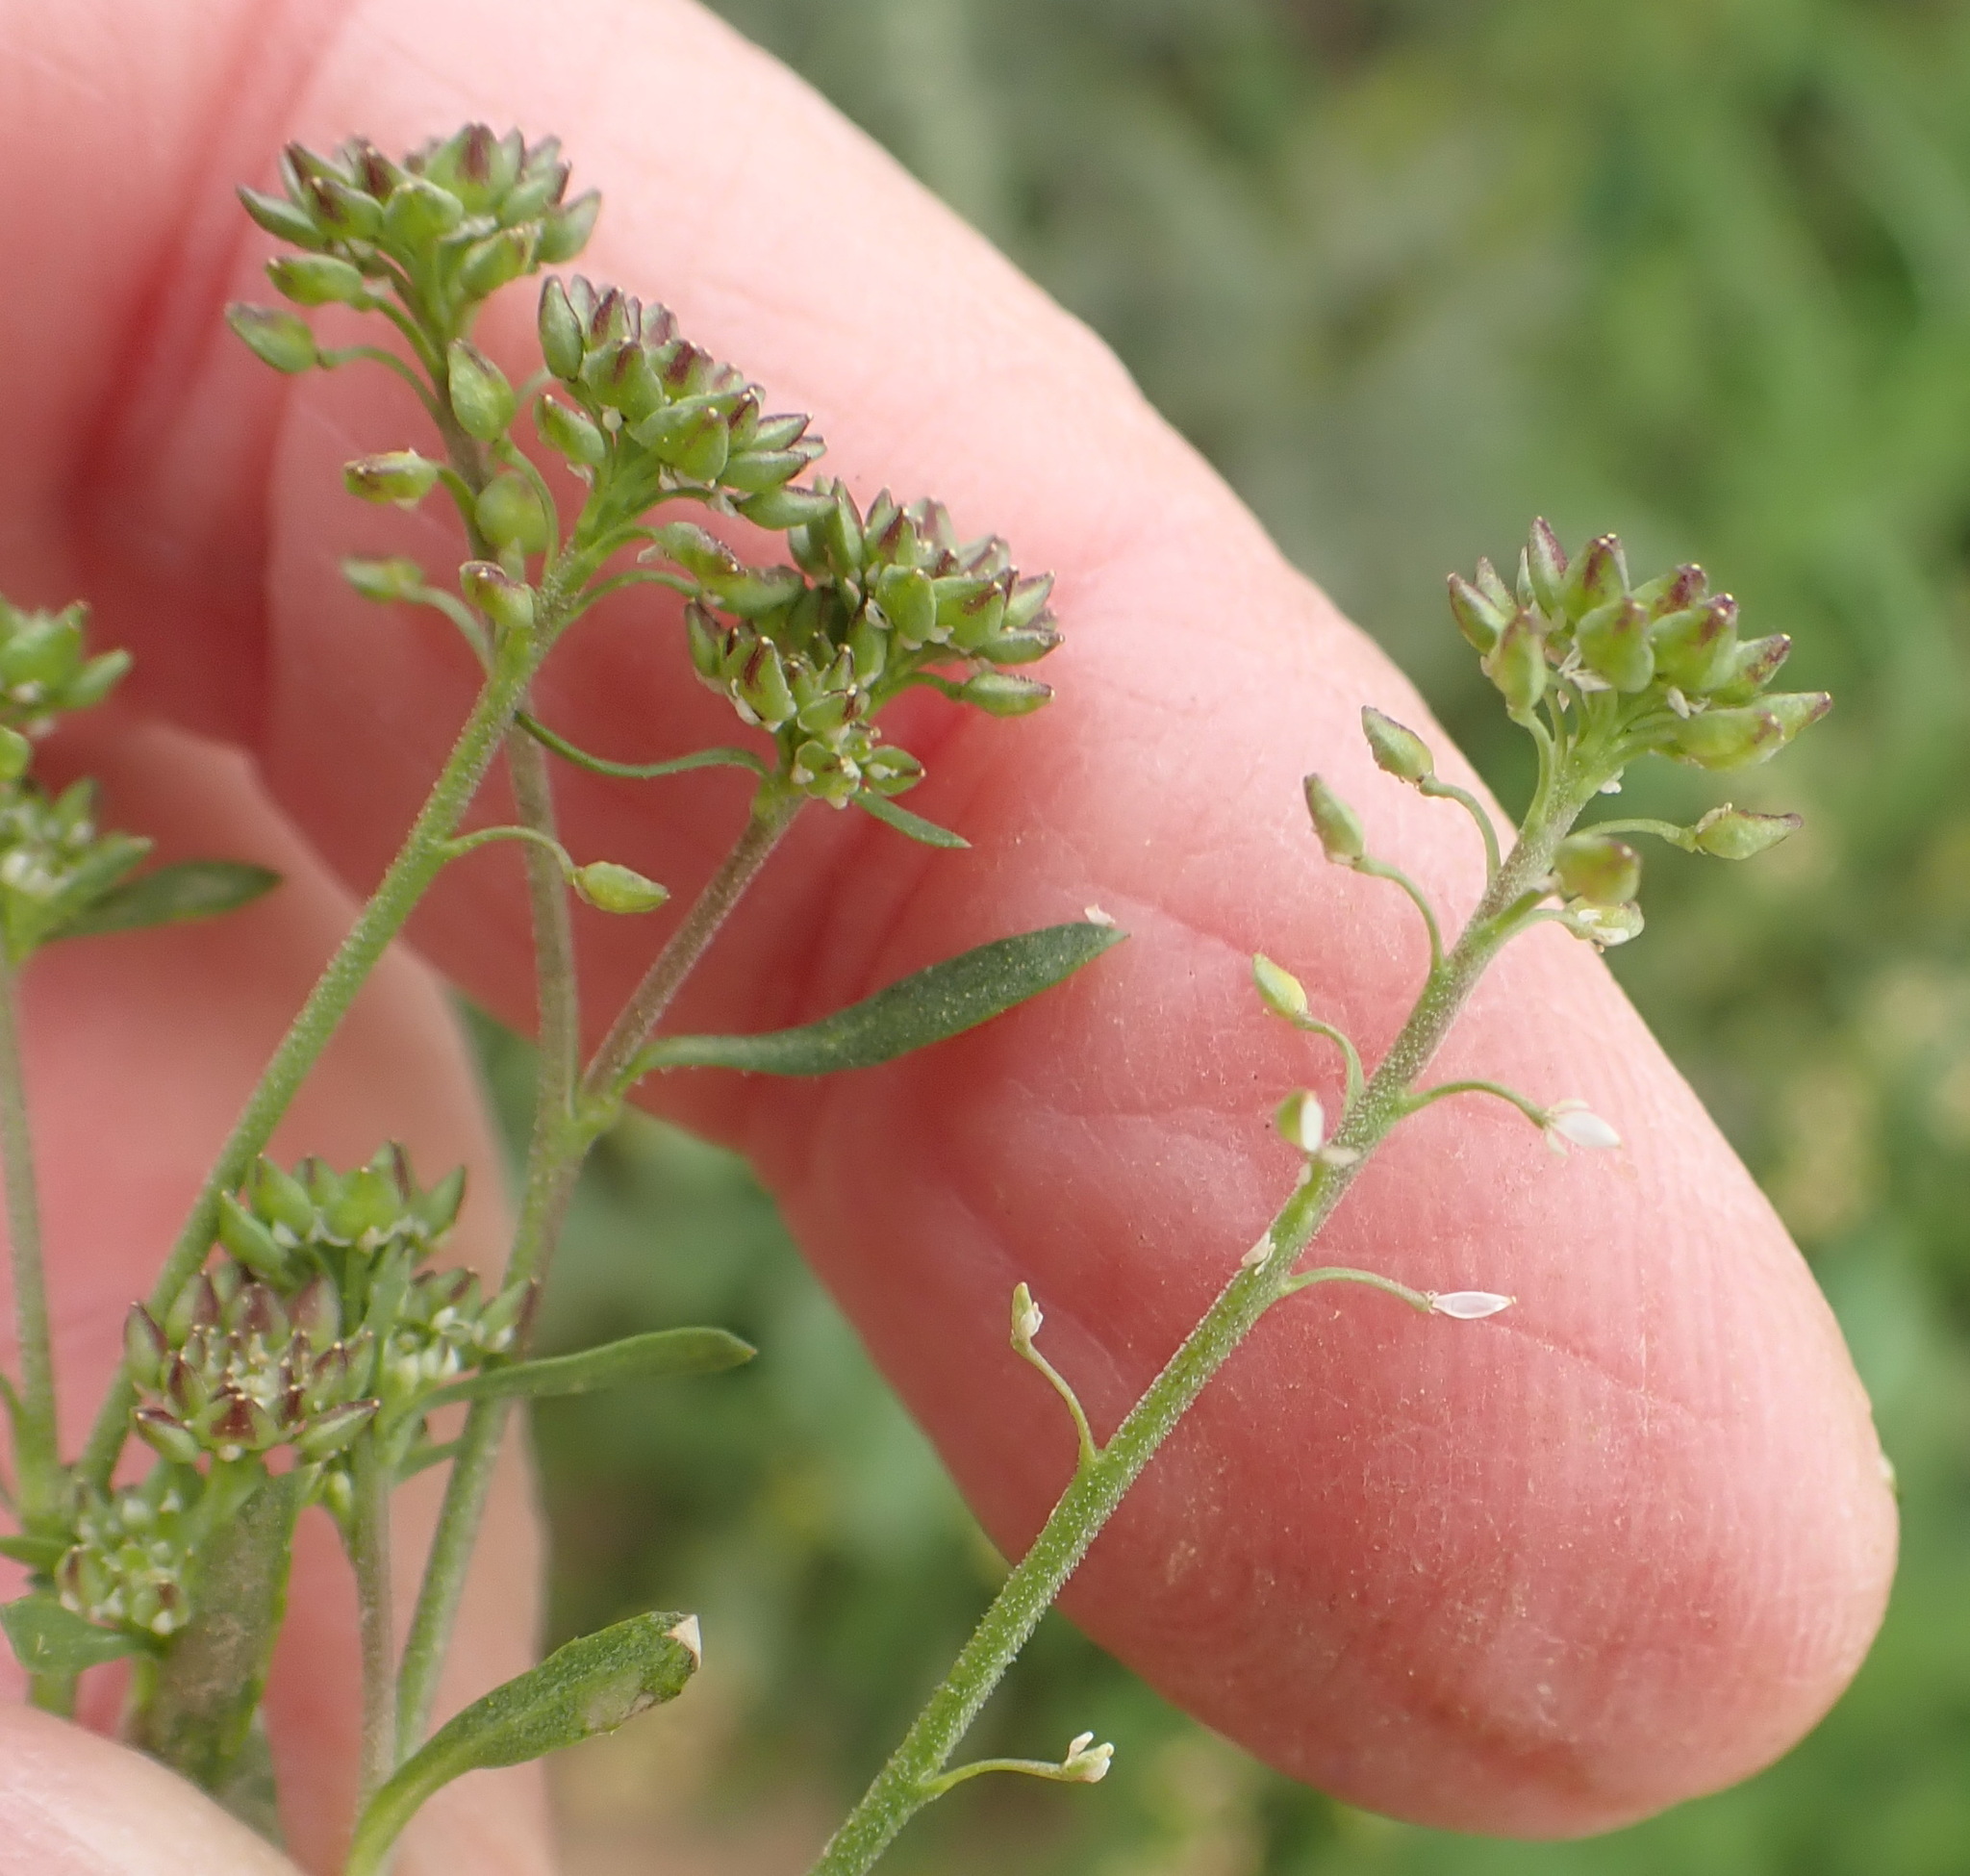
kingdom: Plantae
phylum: Tracheophyta
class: Magnoliopsida
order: Brassicales
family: Brassicaceae
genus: Lepidium
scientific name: Lepidium africanum
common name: African pepperwort
